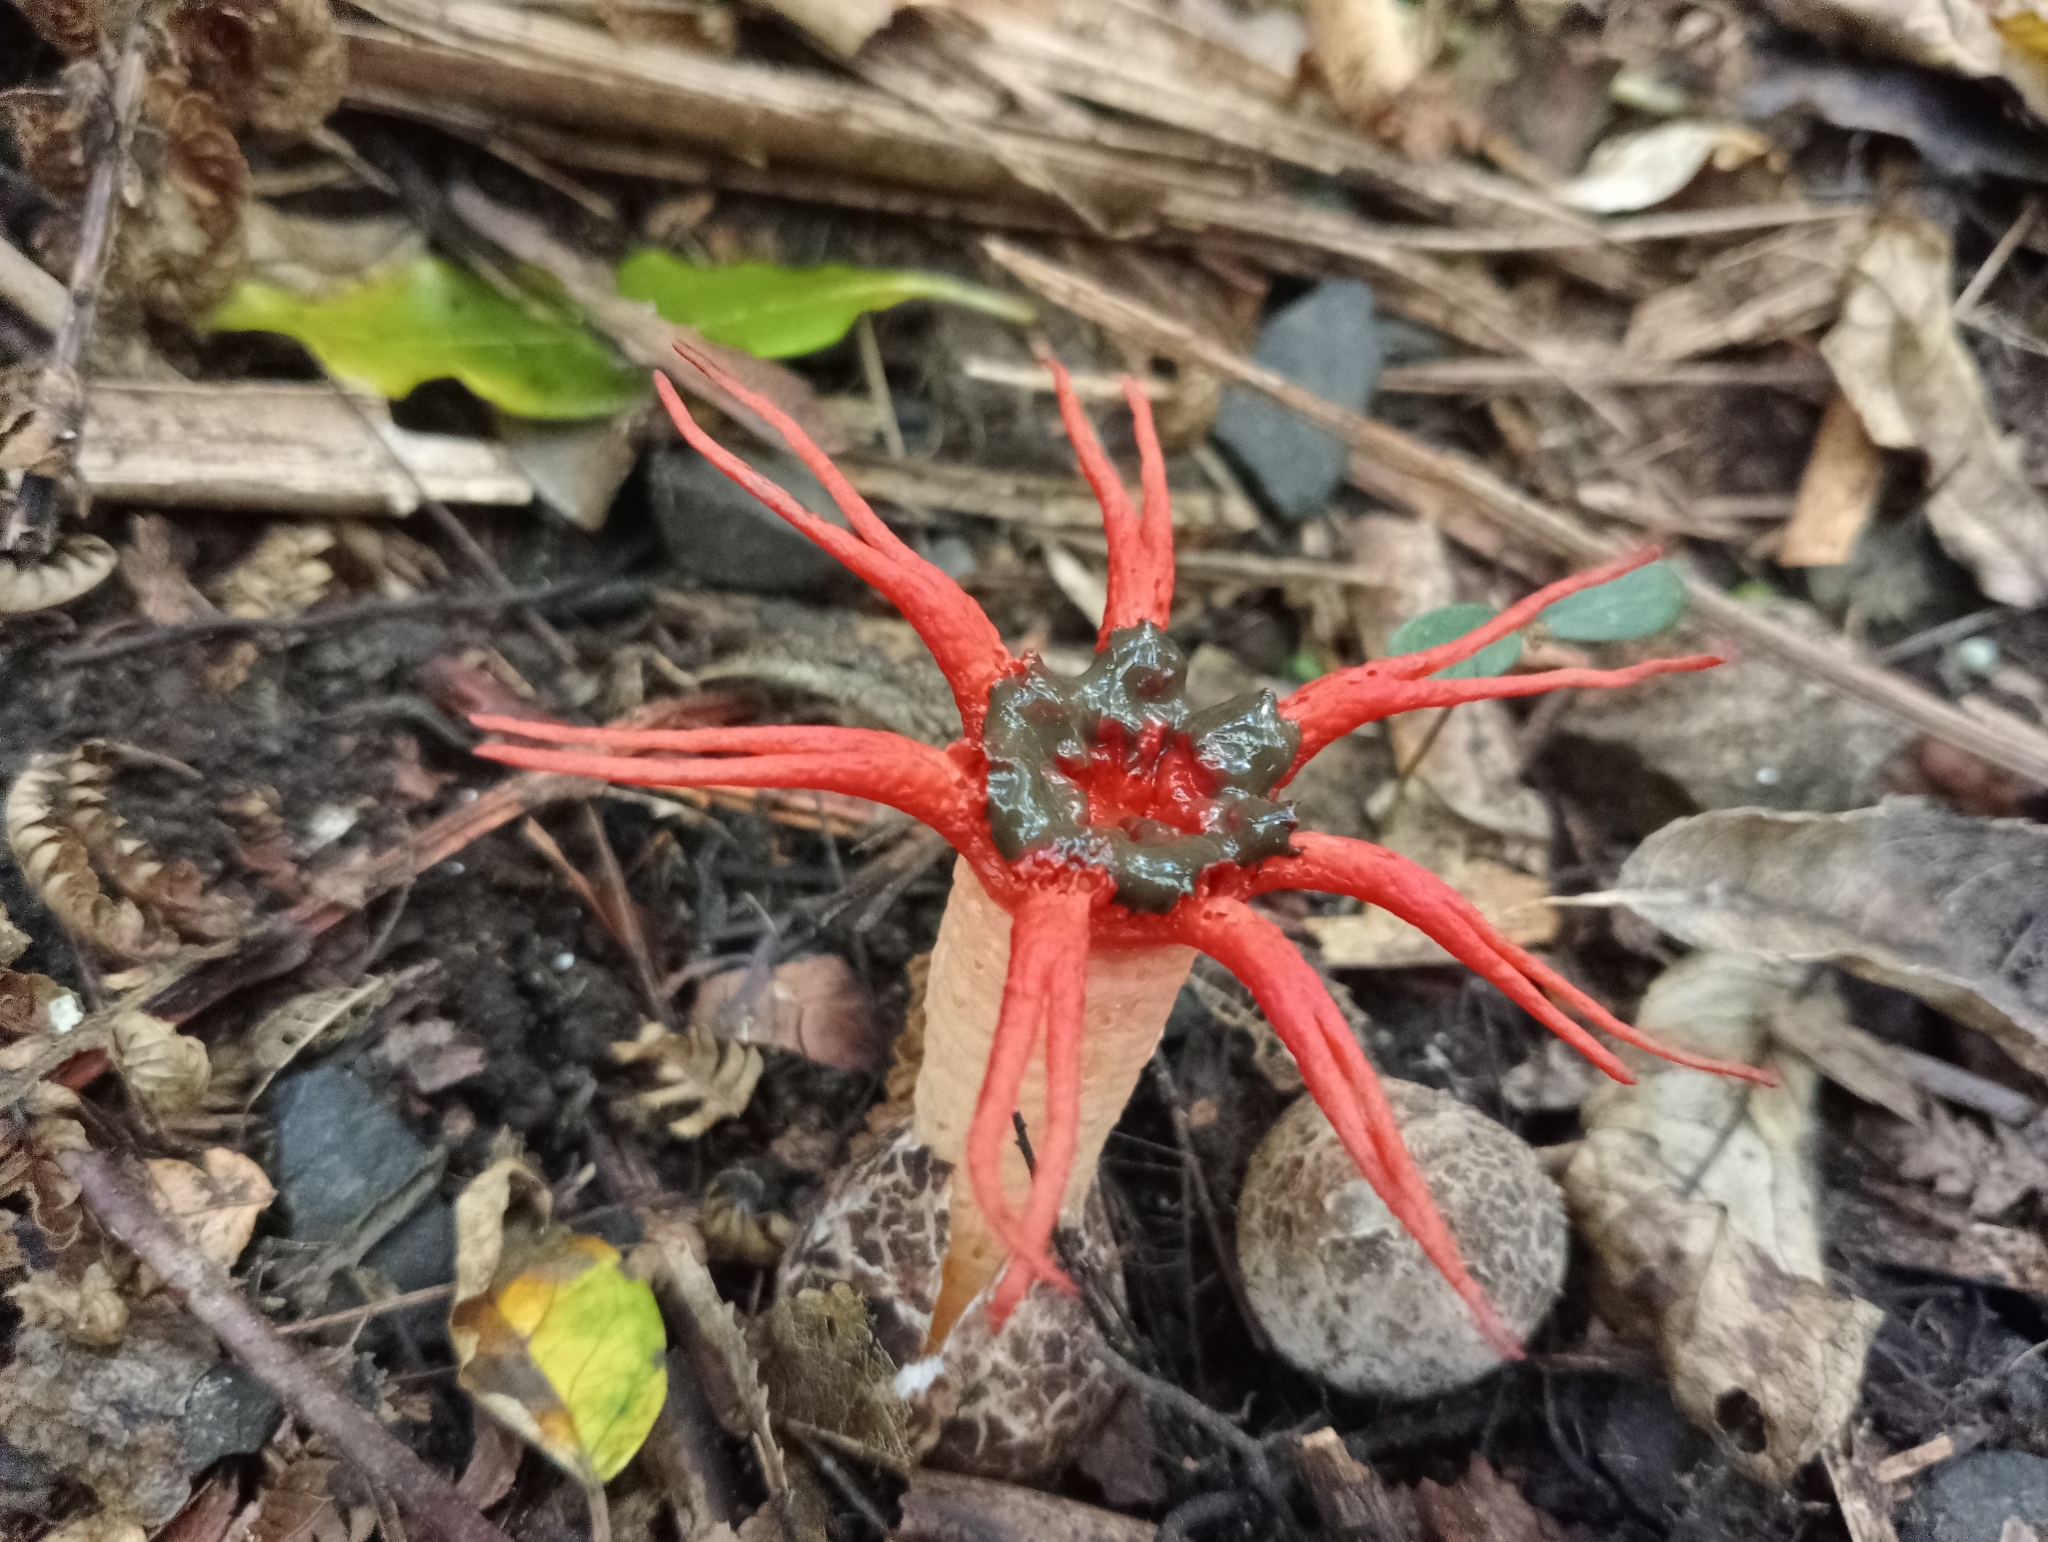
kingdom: Fungi
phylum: Basidiomycota
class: Agaricomycetes
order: Phallales
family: Phallaceae
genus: Aseroe
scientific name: Aseroe rubra
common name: Starfish fungus
